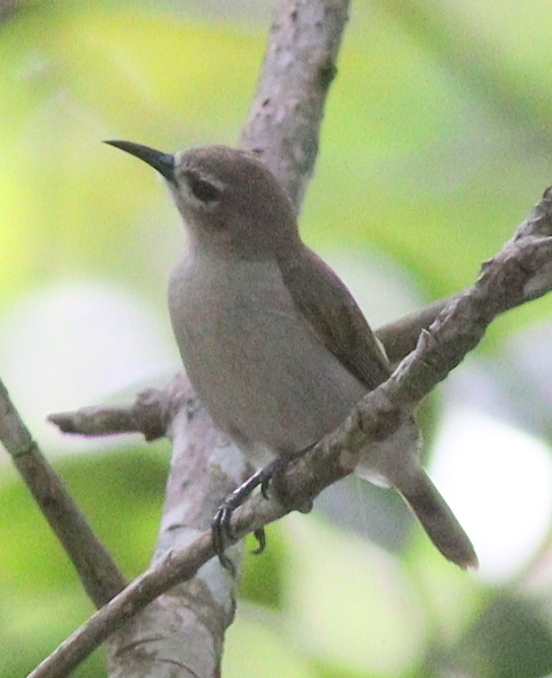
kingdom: Animalia
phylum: Chordata
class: Aves
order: Passeriformes
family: Nectariniidae
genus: Anthreptes
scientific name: Anthreptes gabonicus
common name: Mangrove sunbird
